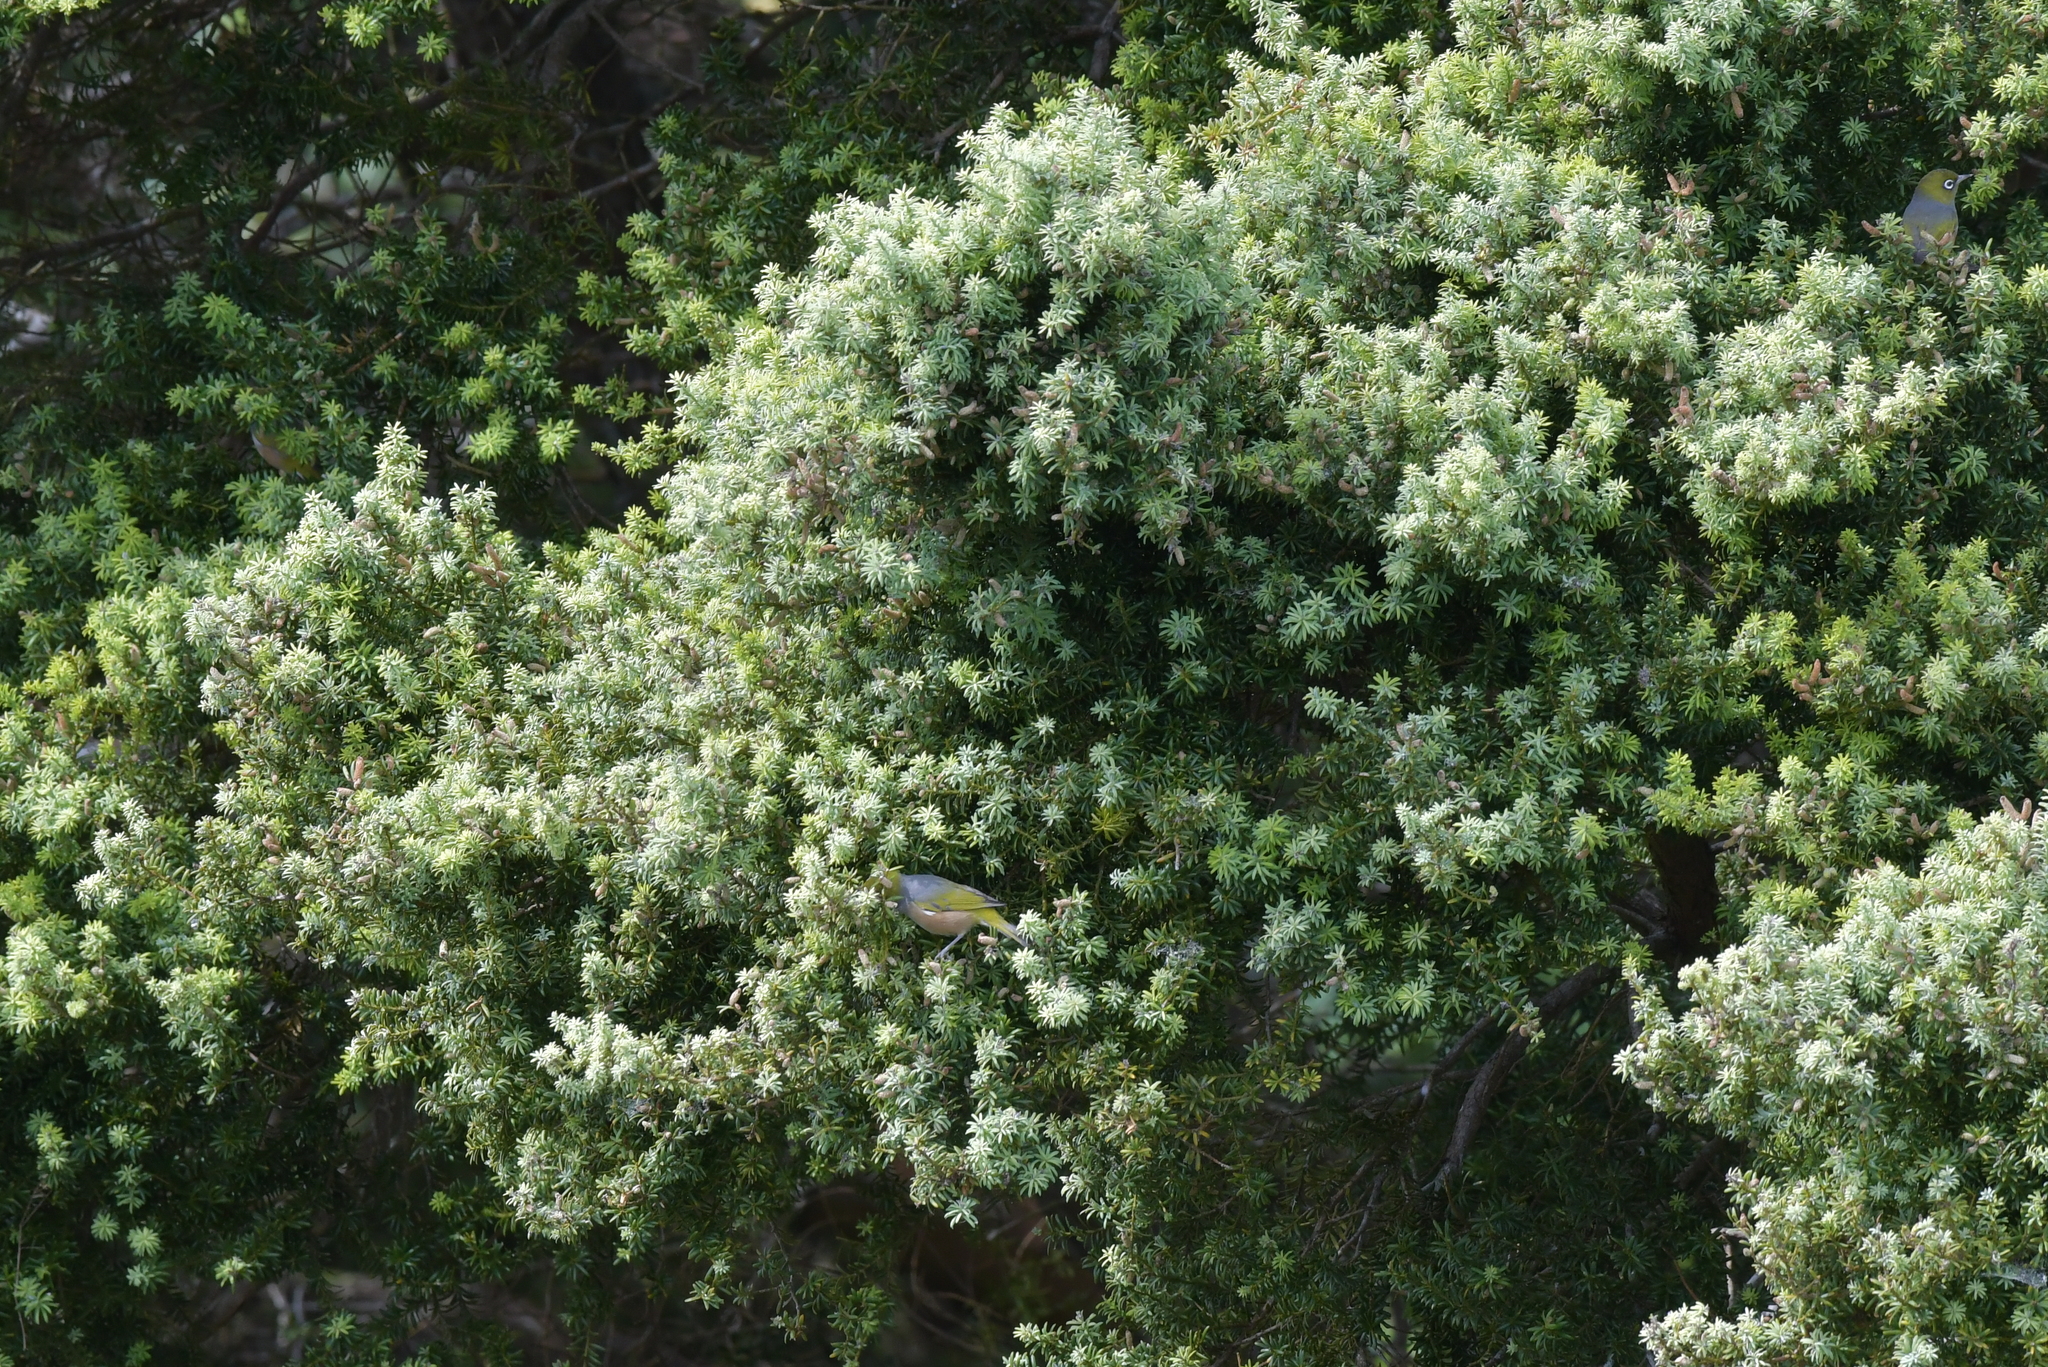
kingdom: Animalia
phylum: Chordata
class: Aves
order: Passeriformes
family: Zosteropidae
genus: Zosterops
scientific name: Zosterops lateralis
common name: Silvereye
